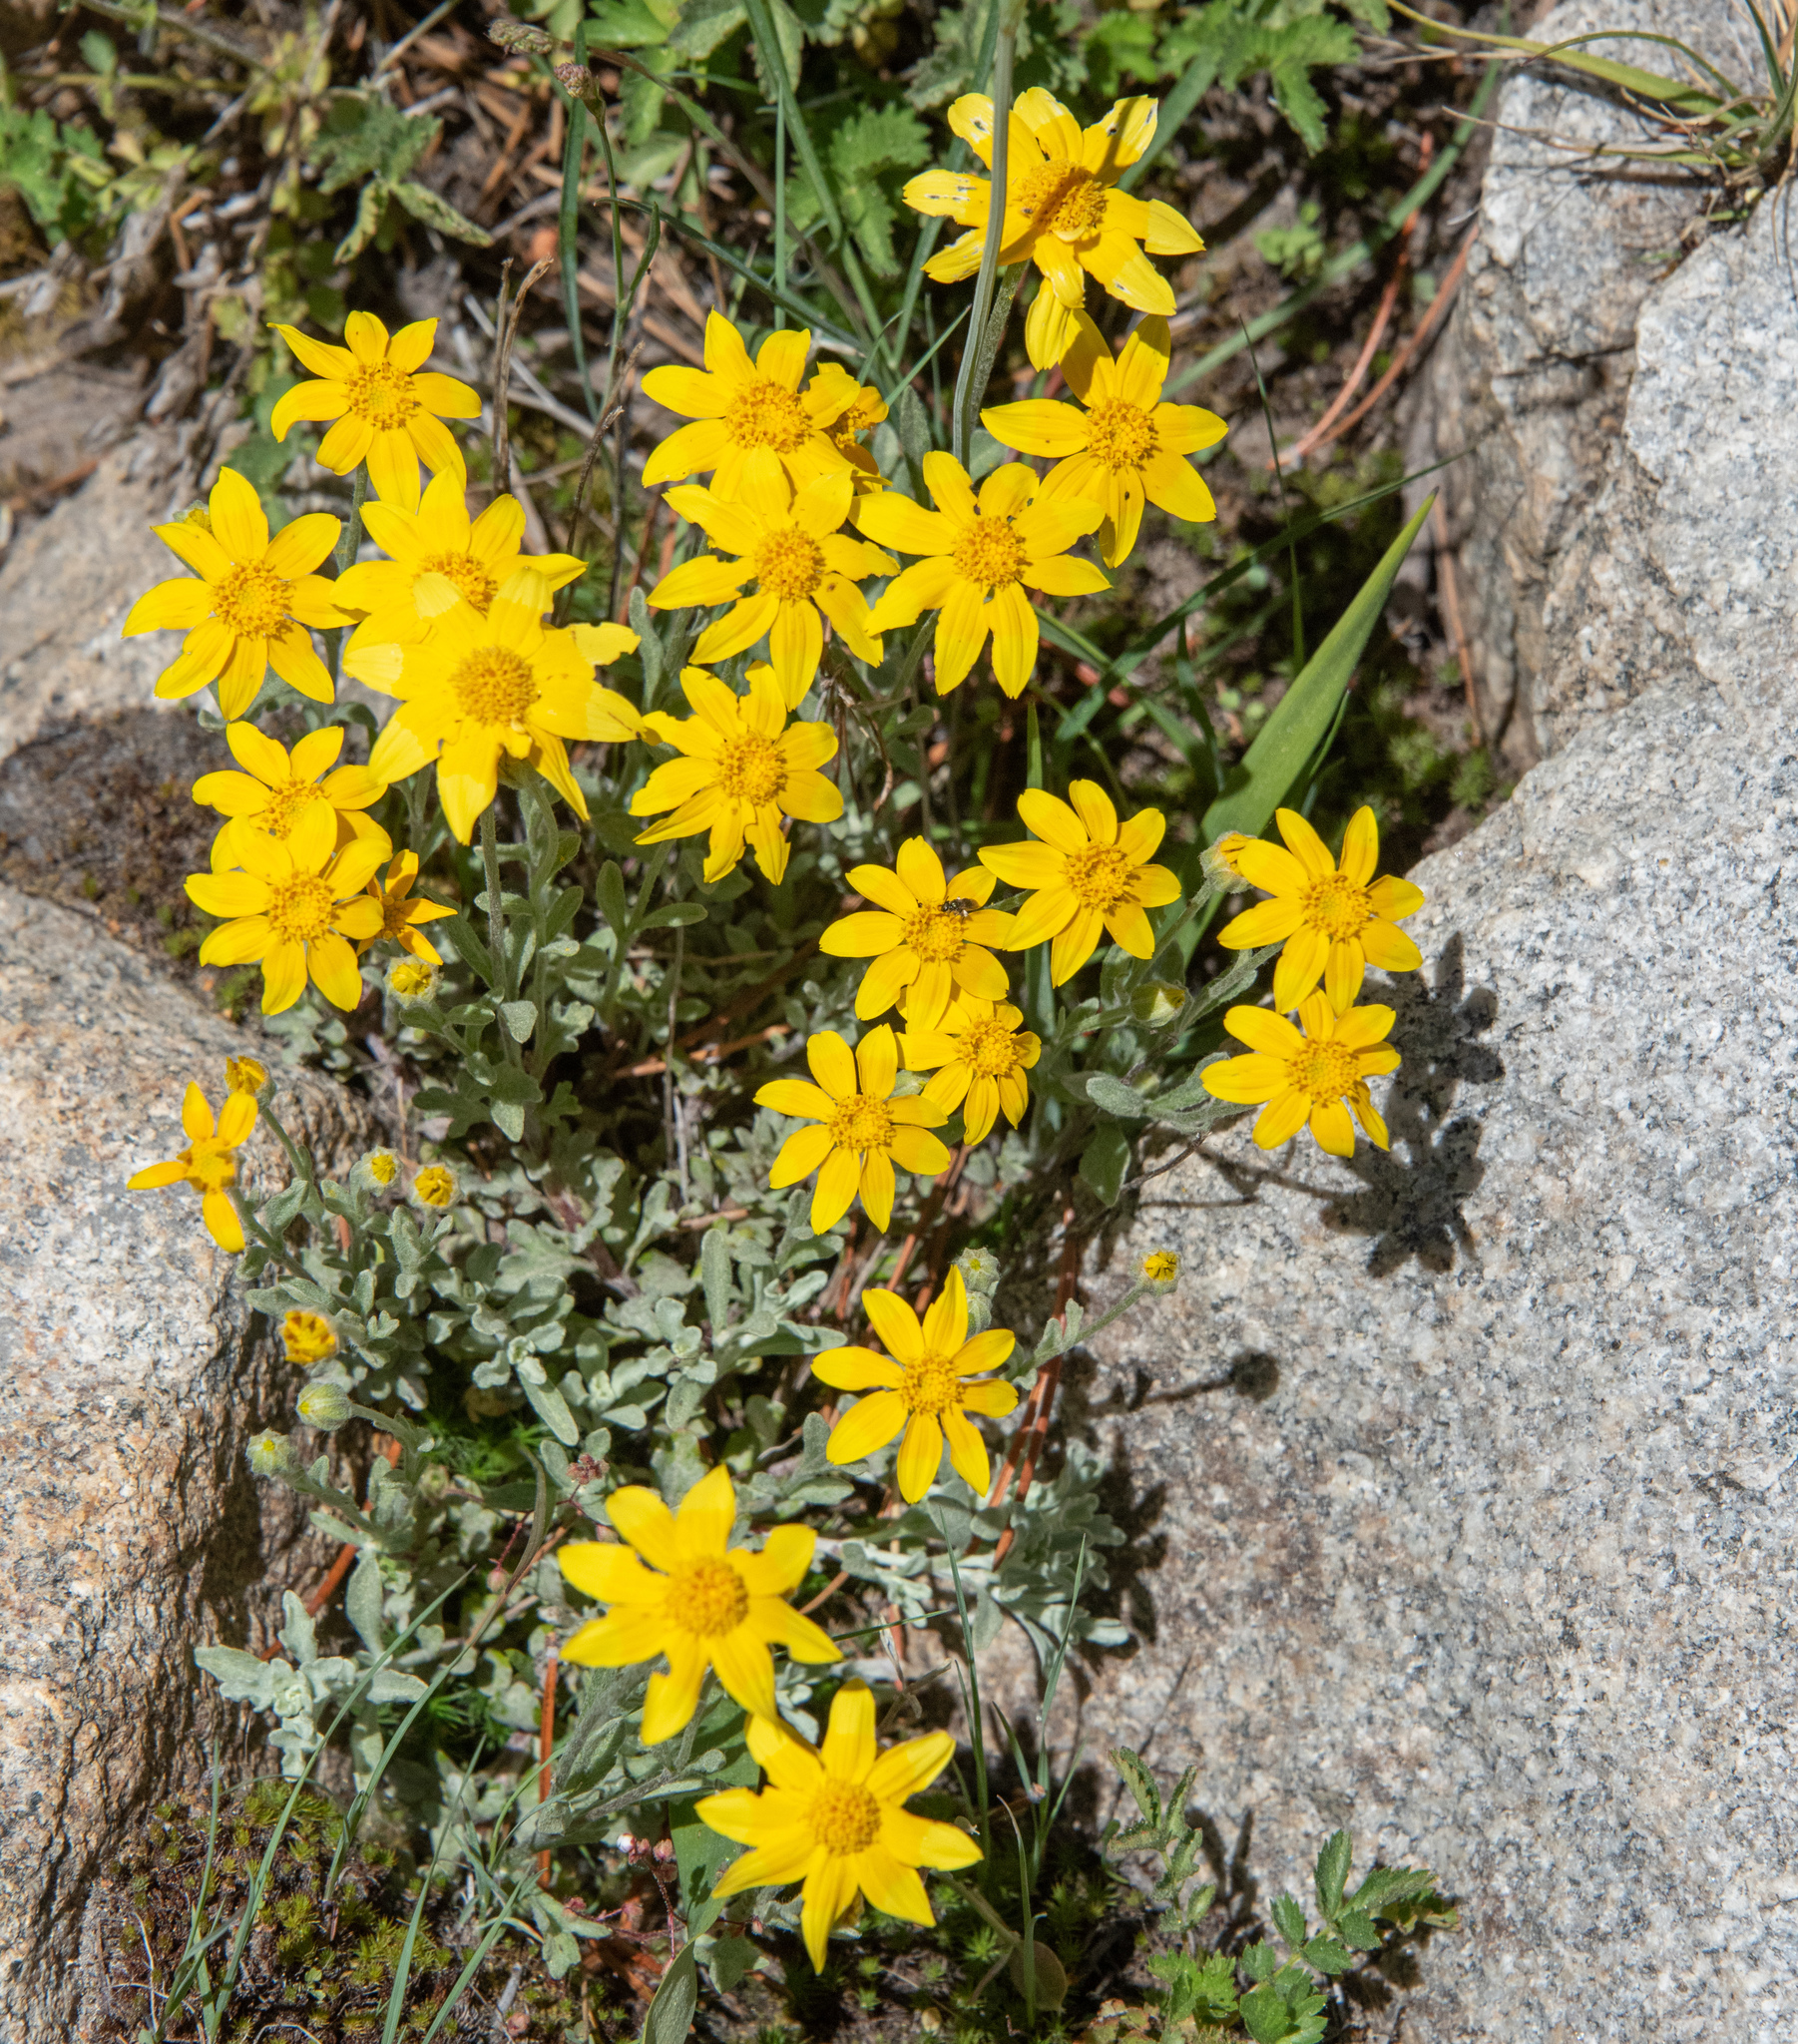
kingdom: Plantae
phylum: Tracheophyta
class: Magnoliopsida
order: Asterales
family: Asteraceae
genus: Eriophyllum
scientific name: Eriophyllum lanatum
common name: Common woolly-sunflower
